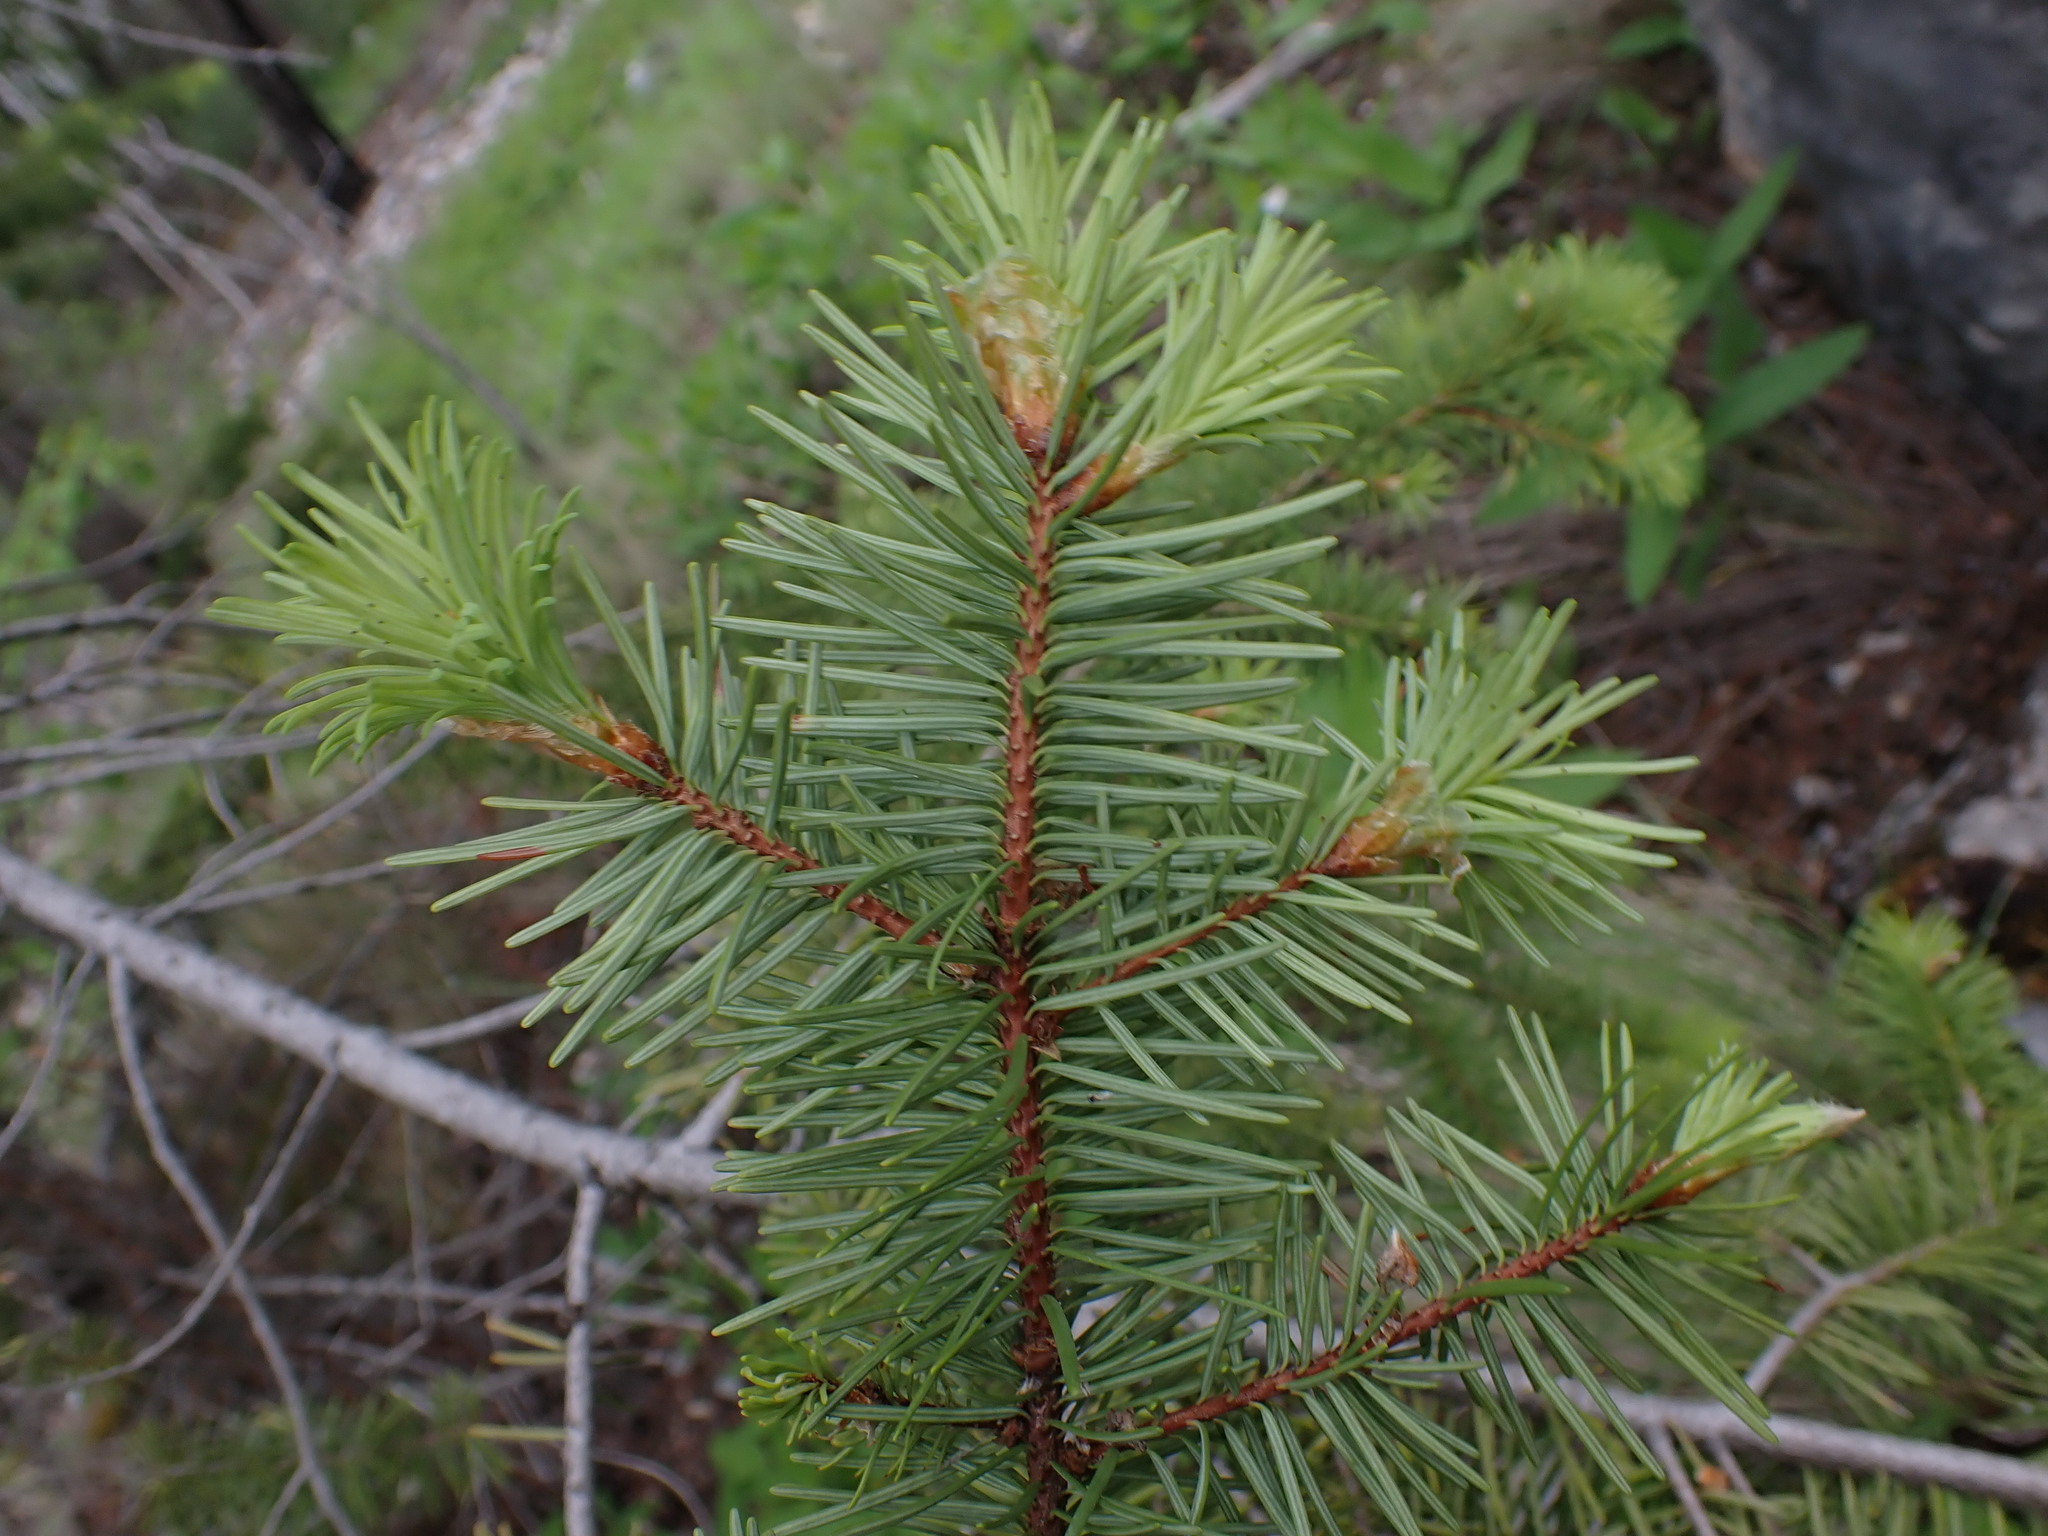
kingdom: Plantae
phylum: Tracheophyta
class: Pinopsida
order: Pinales
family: Pinaceae
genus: Pseudotsuga
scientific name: Pseudotsuga menziesii
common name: Douglas fir
